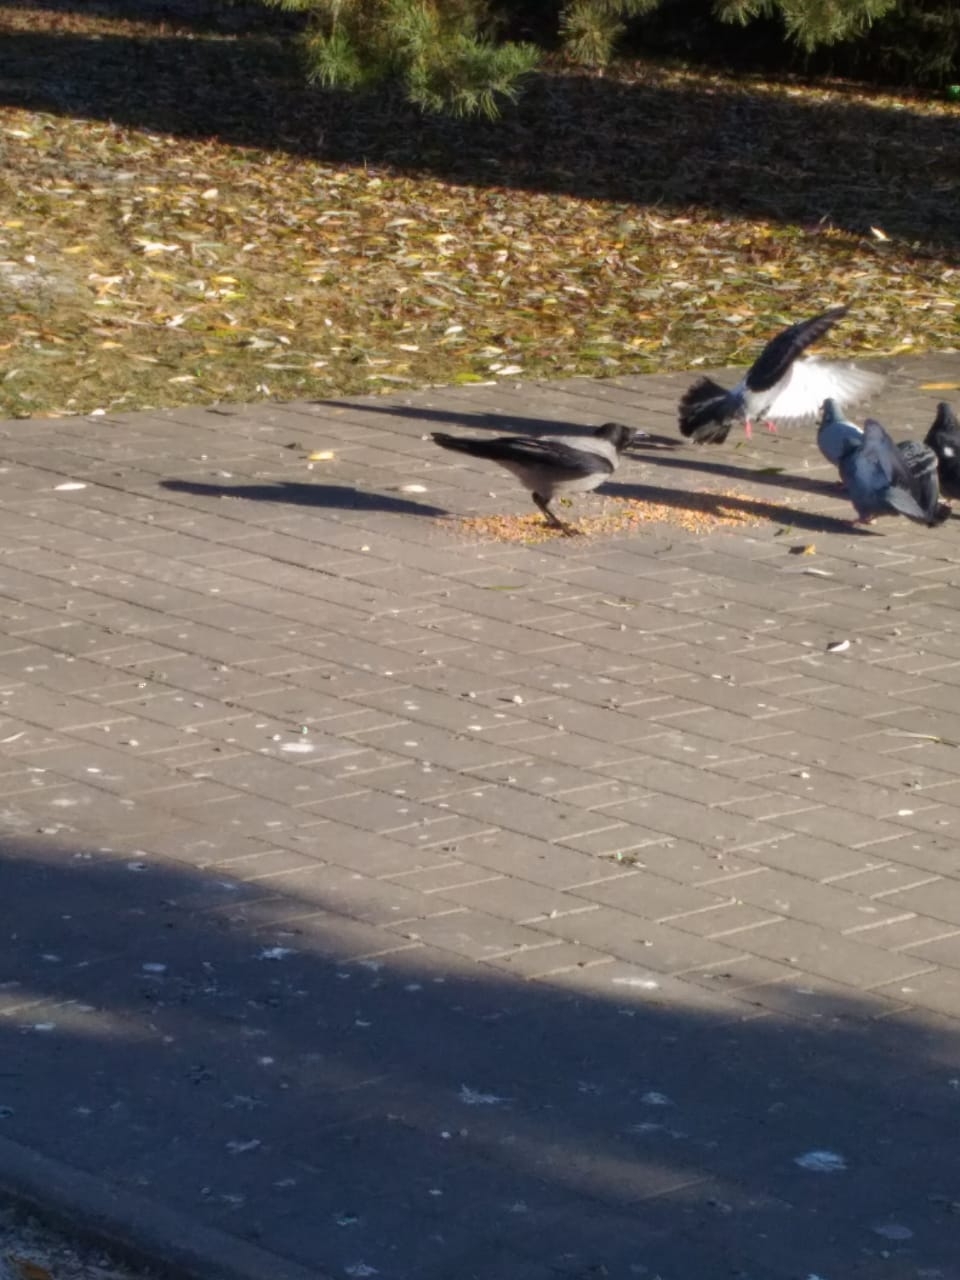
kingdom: Animalia
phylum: Chordata
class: Aves
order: Passeriformes
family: Corvidae
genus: Corvus
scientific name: Corvus cornix
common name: Hooded crow
